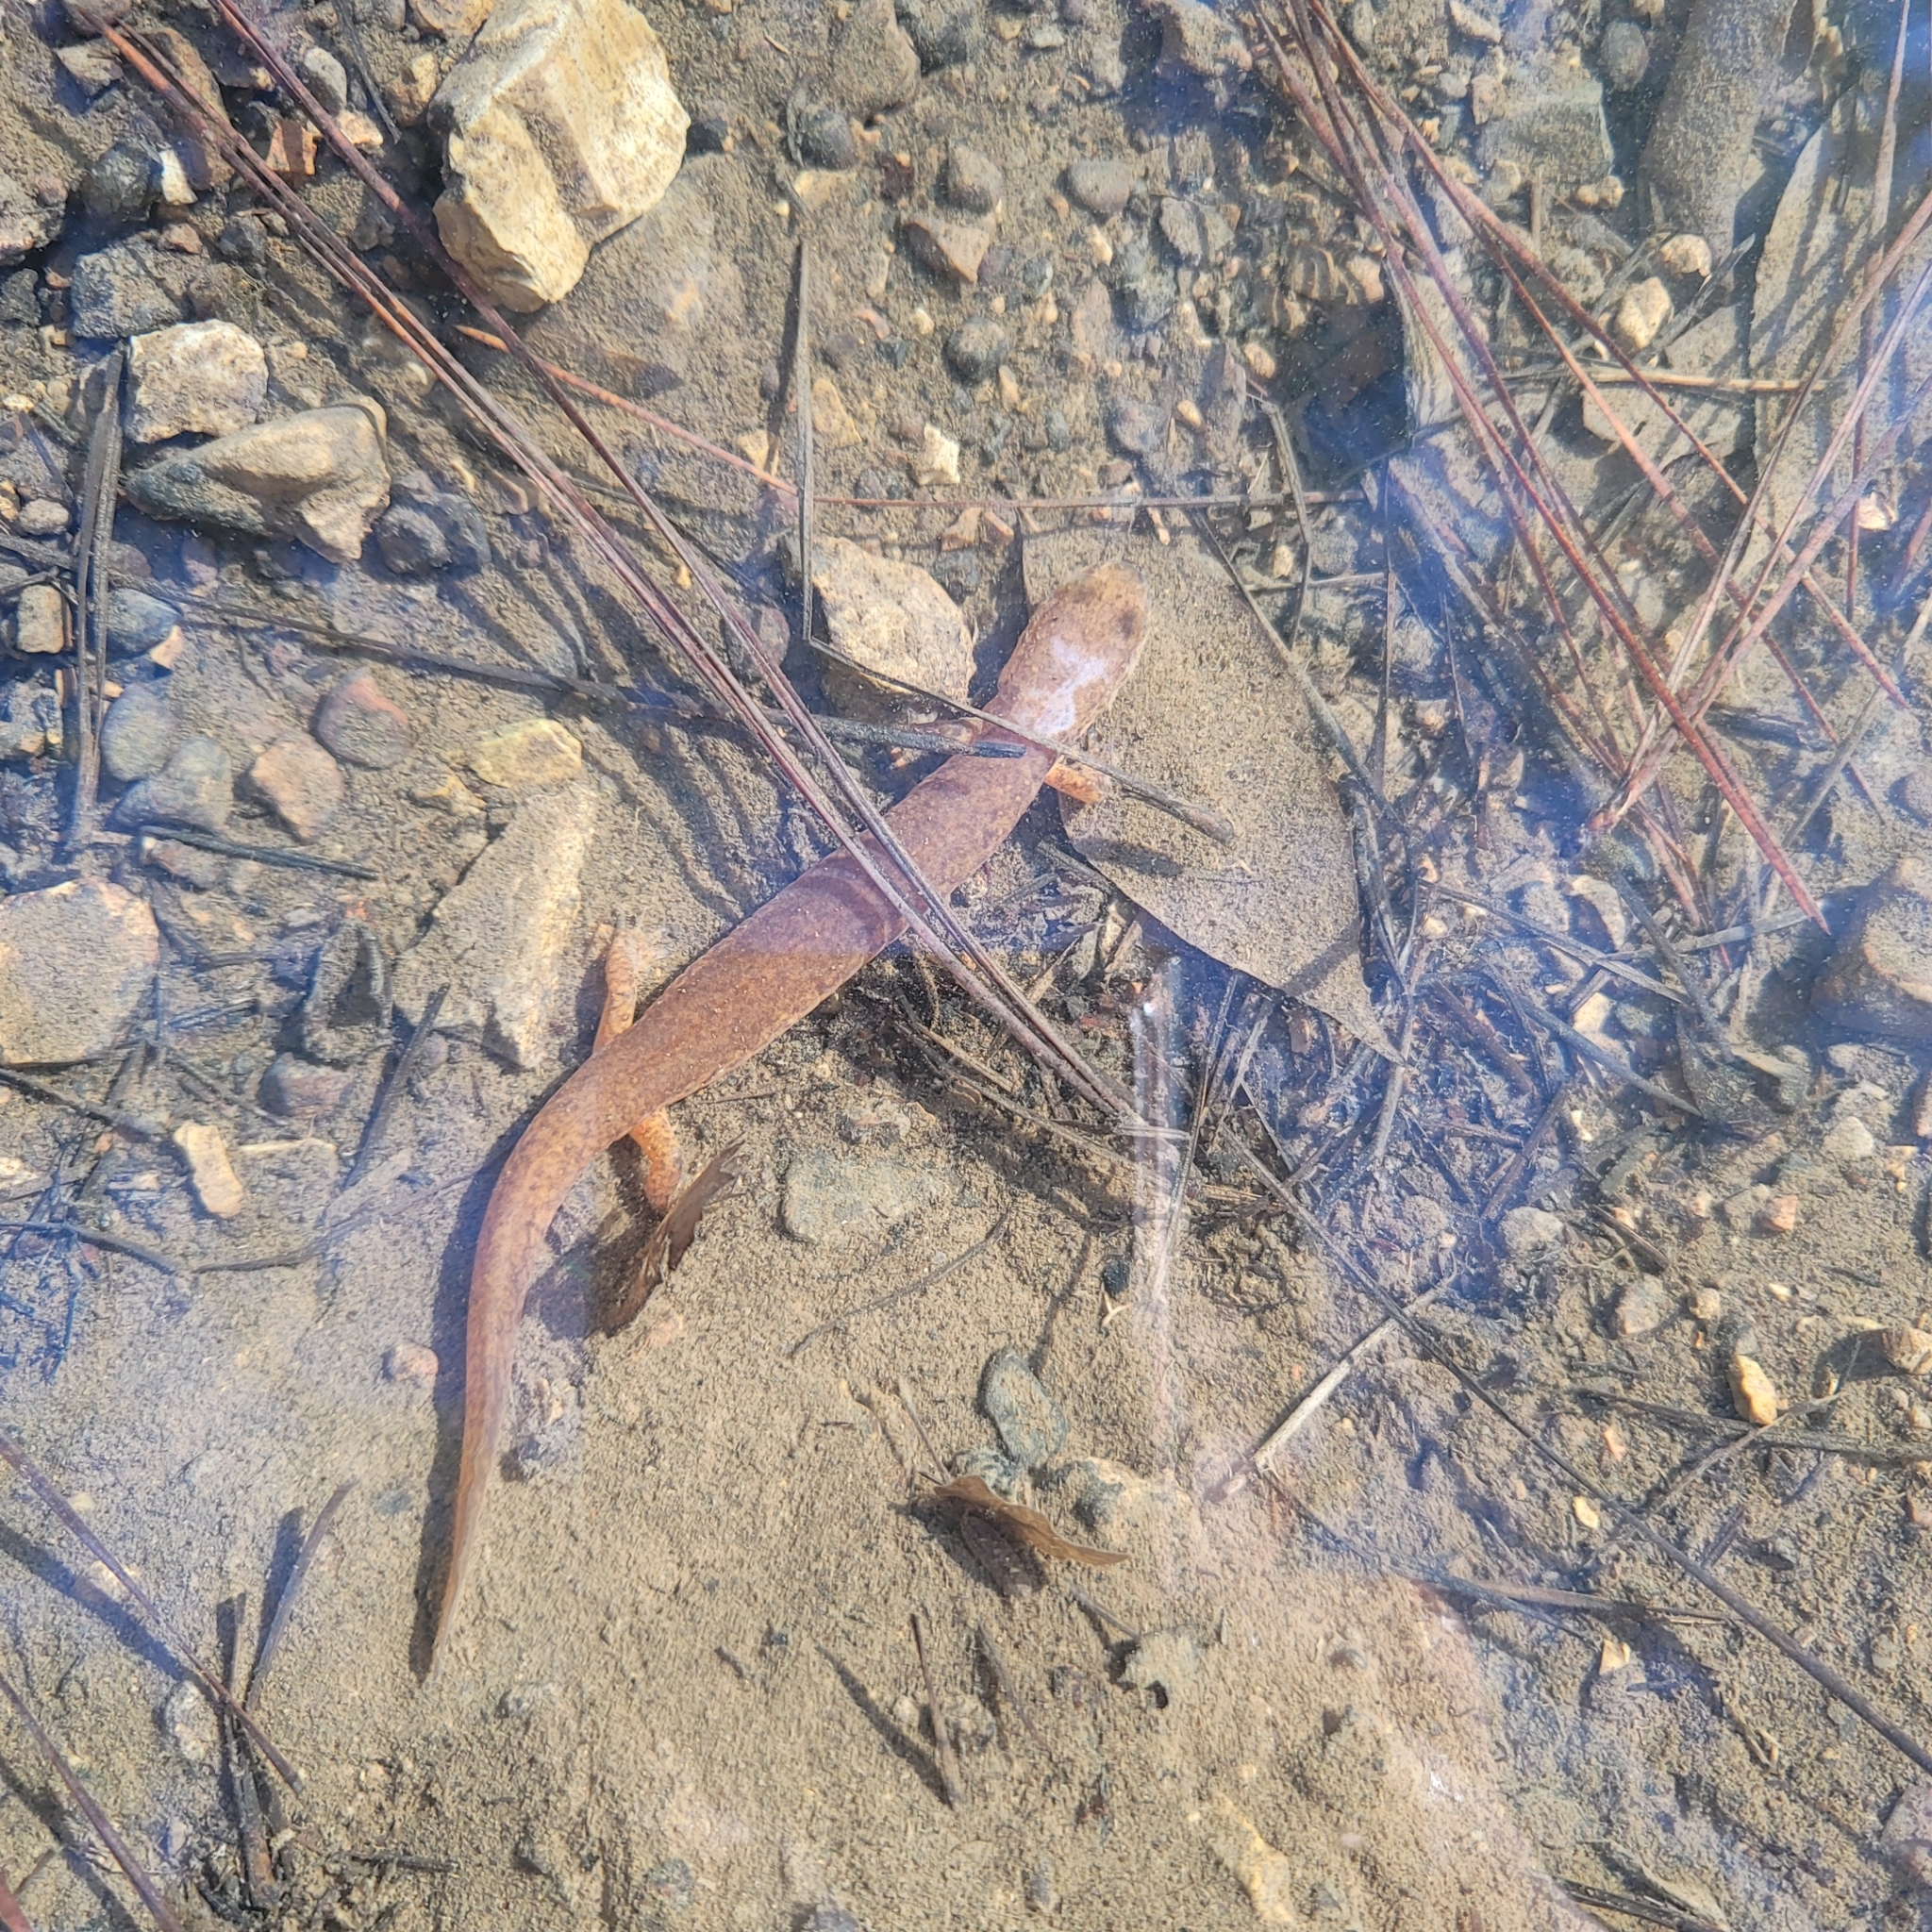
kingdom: Animalia
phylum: Chordata
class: Amphibia
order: Caudata
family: Plethodontidae
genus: Gyrinophilus
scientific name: Gyrinophilus porphyriticus
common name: Spring salamander
